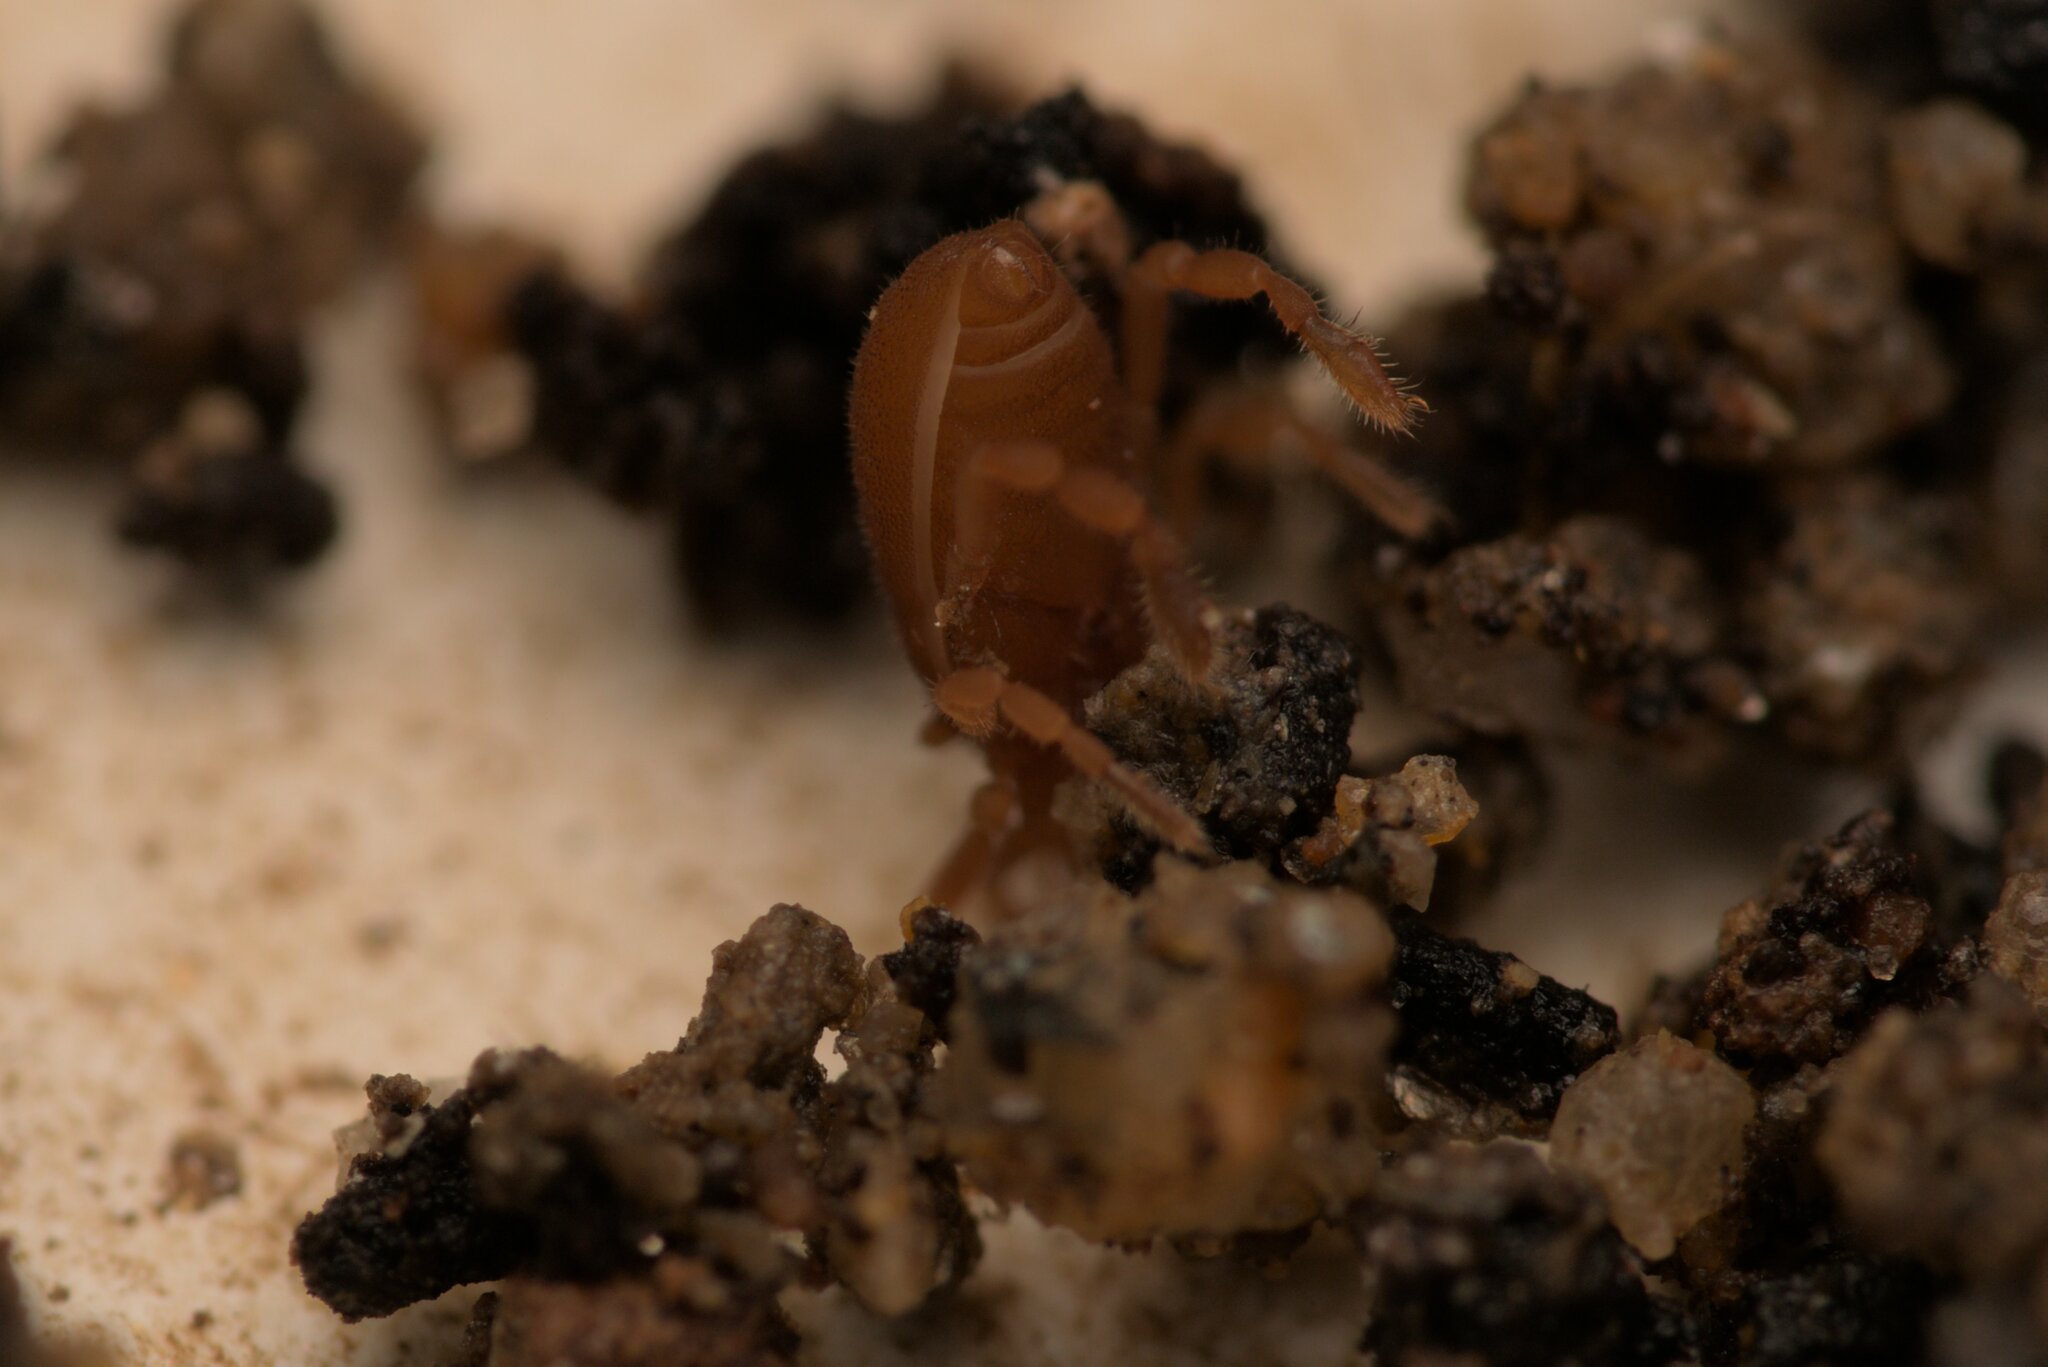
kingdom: Animalia
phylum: Arthropoda
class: Arachnida
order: Opiliones
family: Sironidae
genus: Siro
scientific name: Siro rubens
